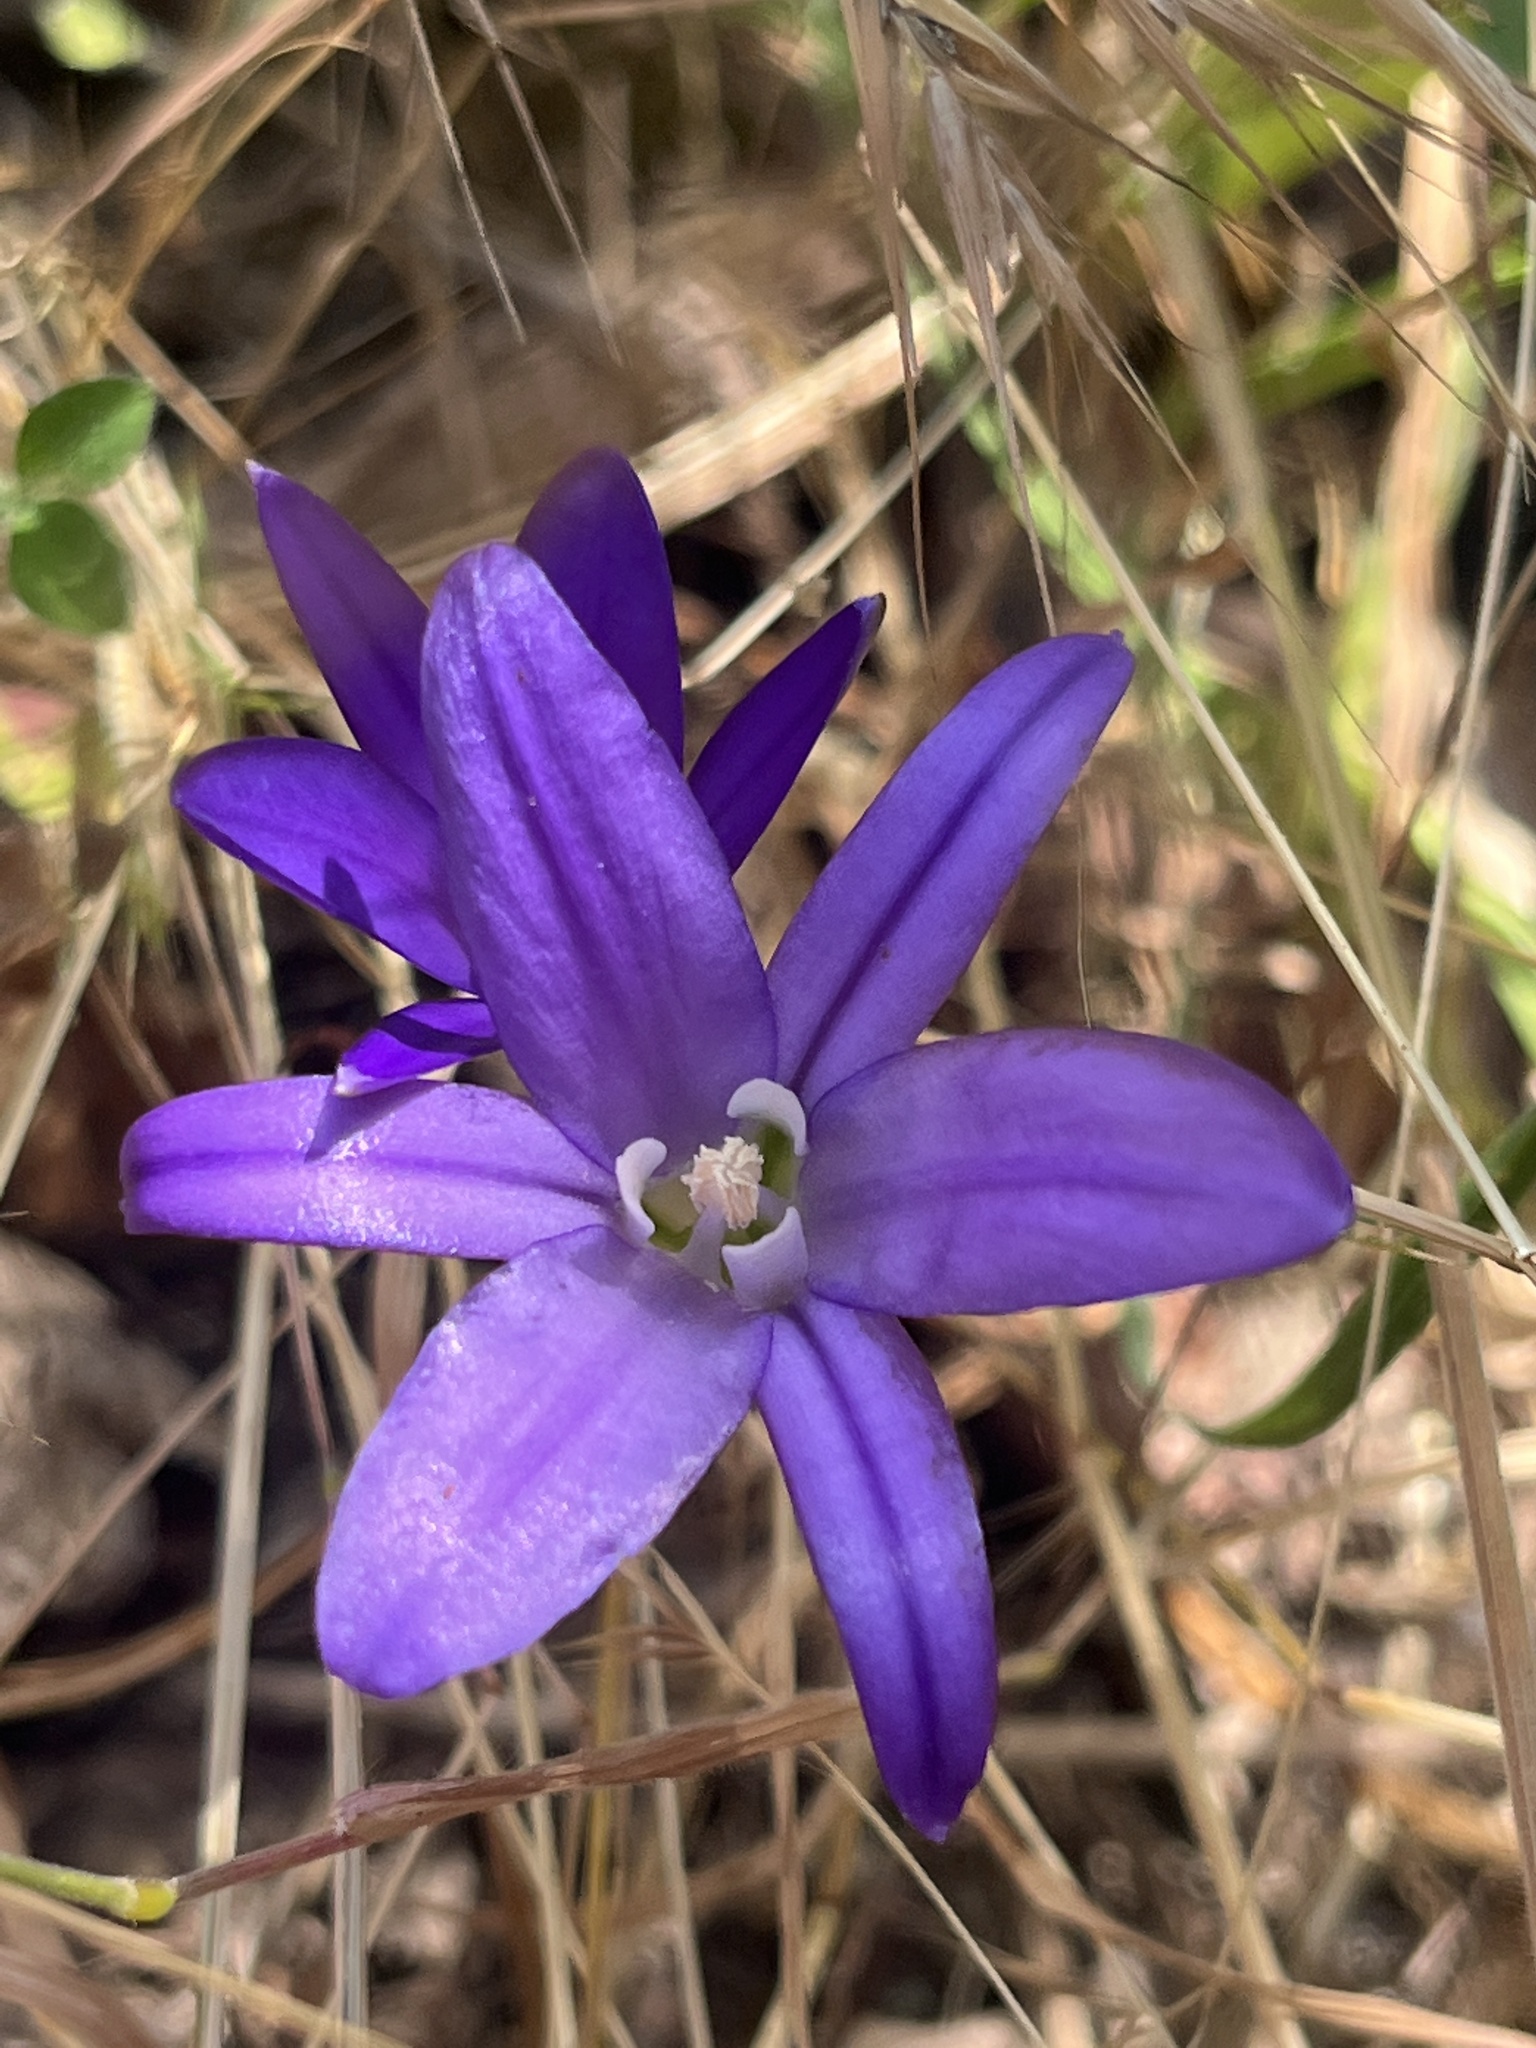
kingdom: Plantae
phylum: Tracheophyta
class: Liliopsida
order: Asparagales
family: Asparagaceae
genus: Brodiaea
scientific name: Brodiaea coronaria
